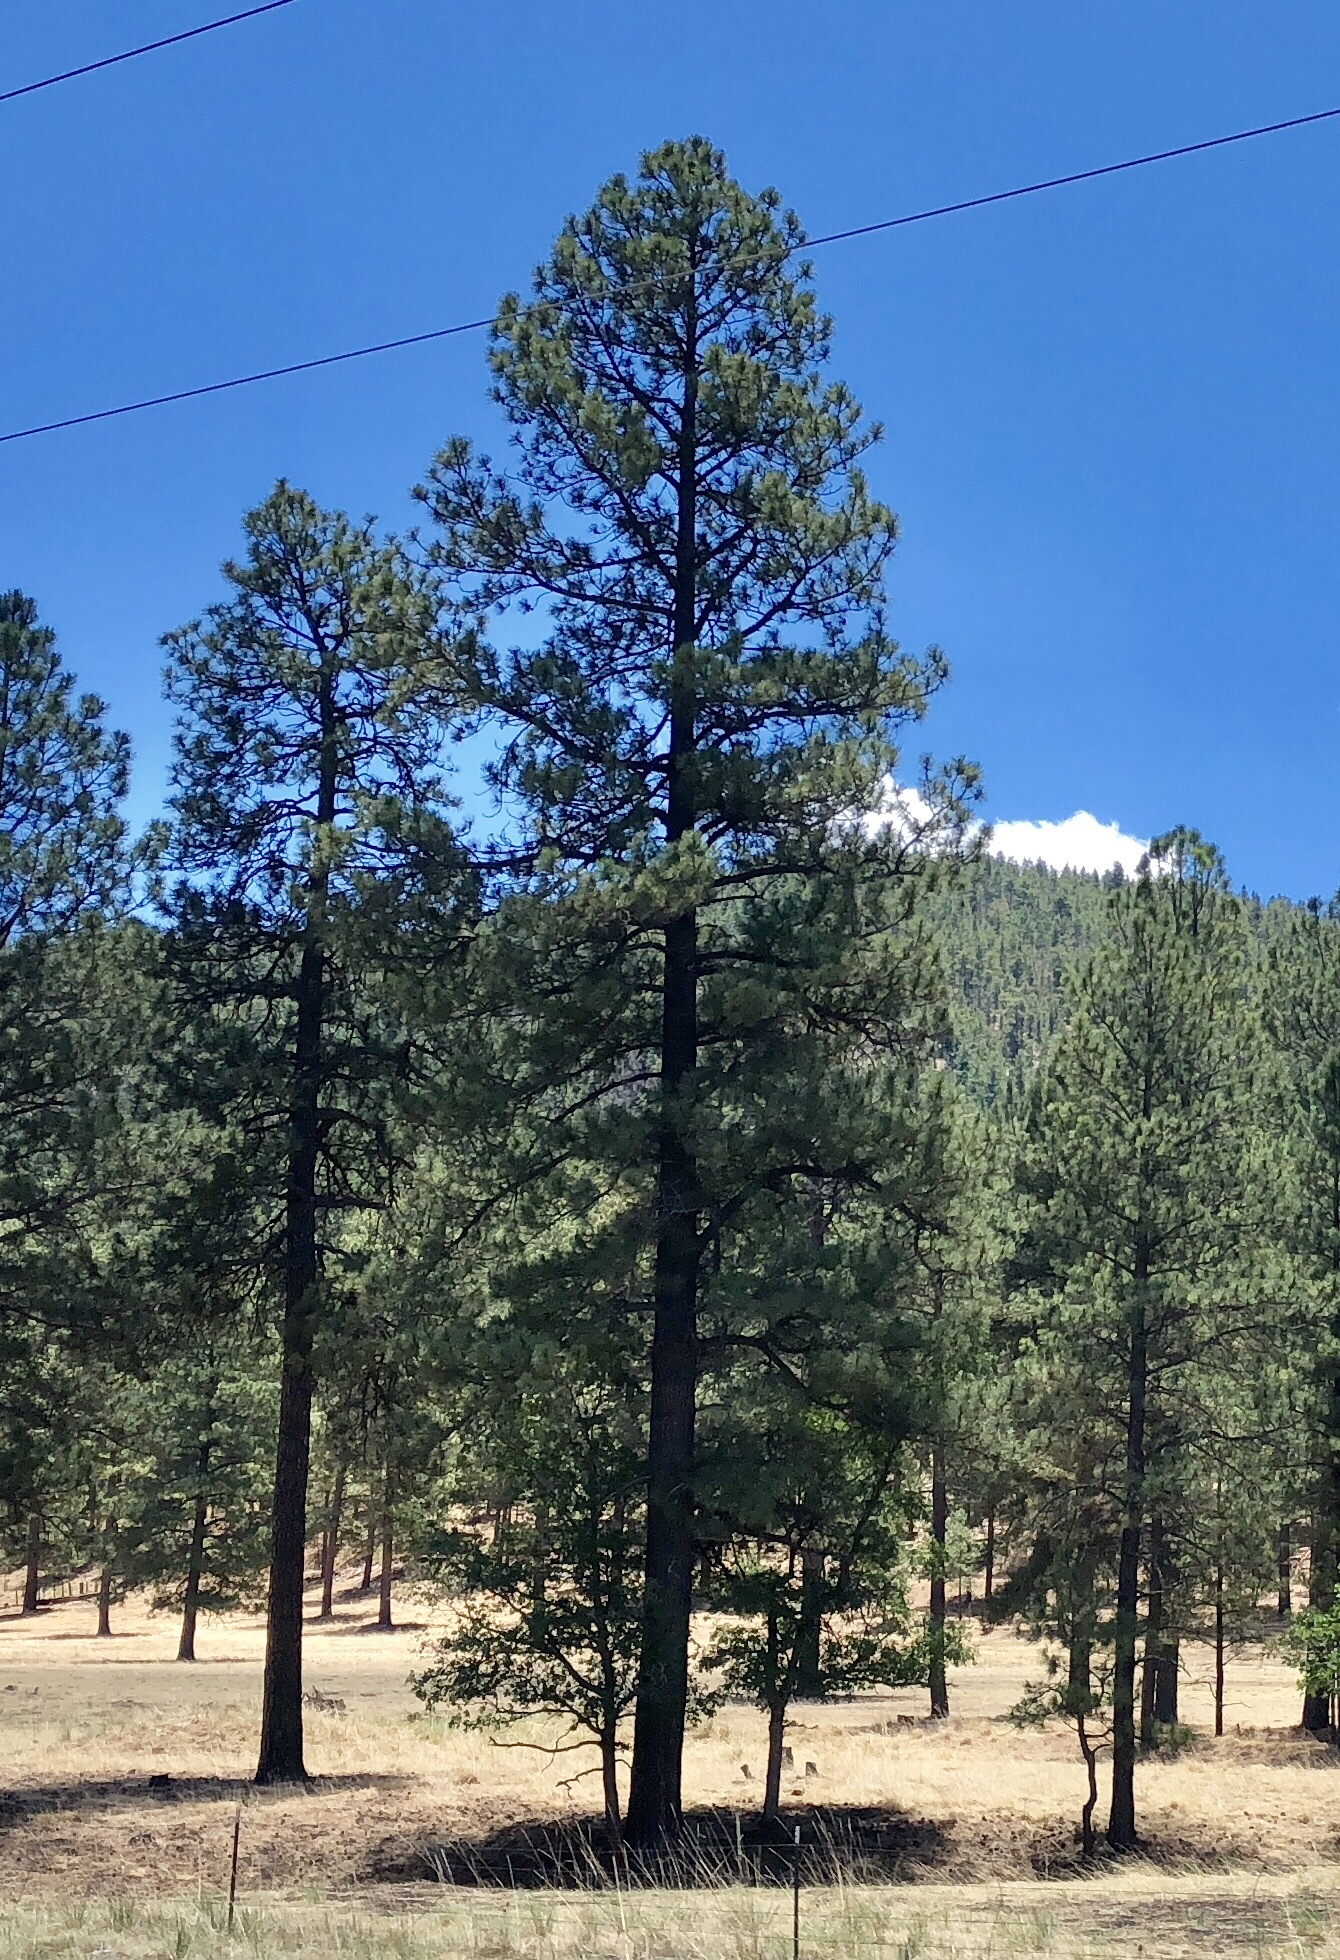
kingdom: Plantae
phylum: Tracheophyta
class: Pinopsida
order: Pinales
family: Pinaceae
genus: Pinus
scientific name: Pinus ponderosa
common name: Western yellow-pine
